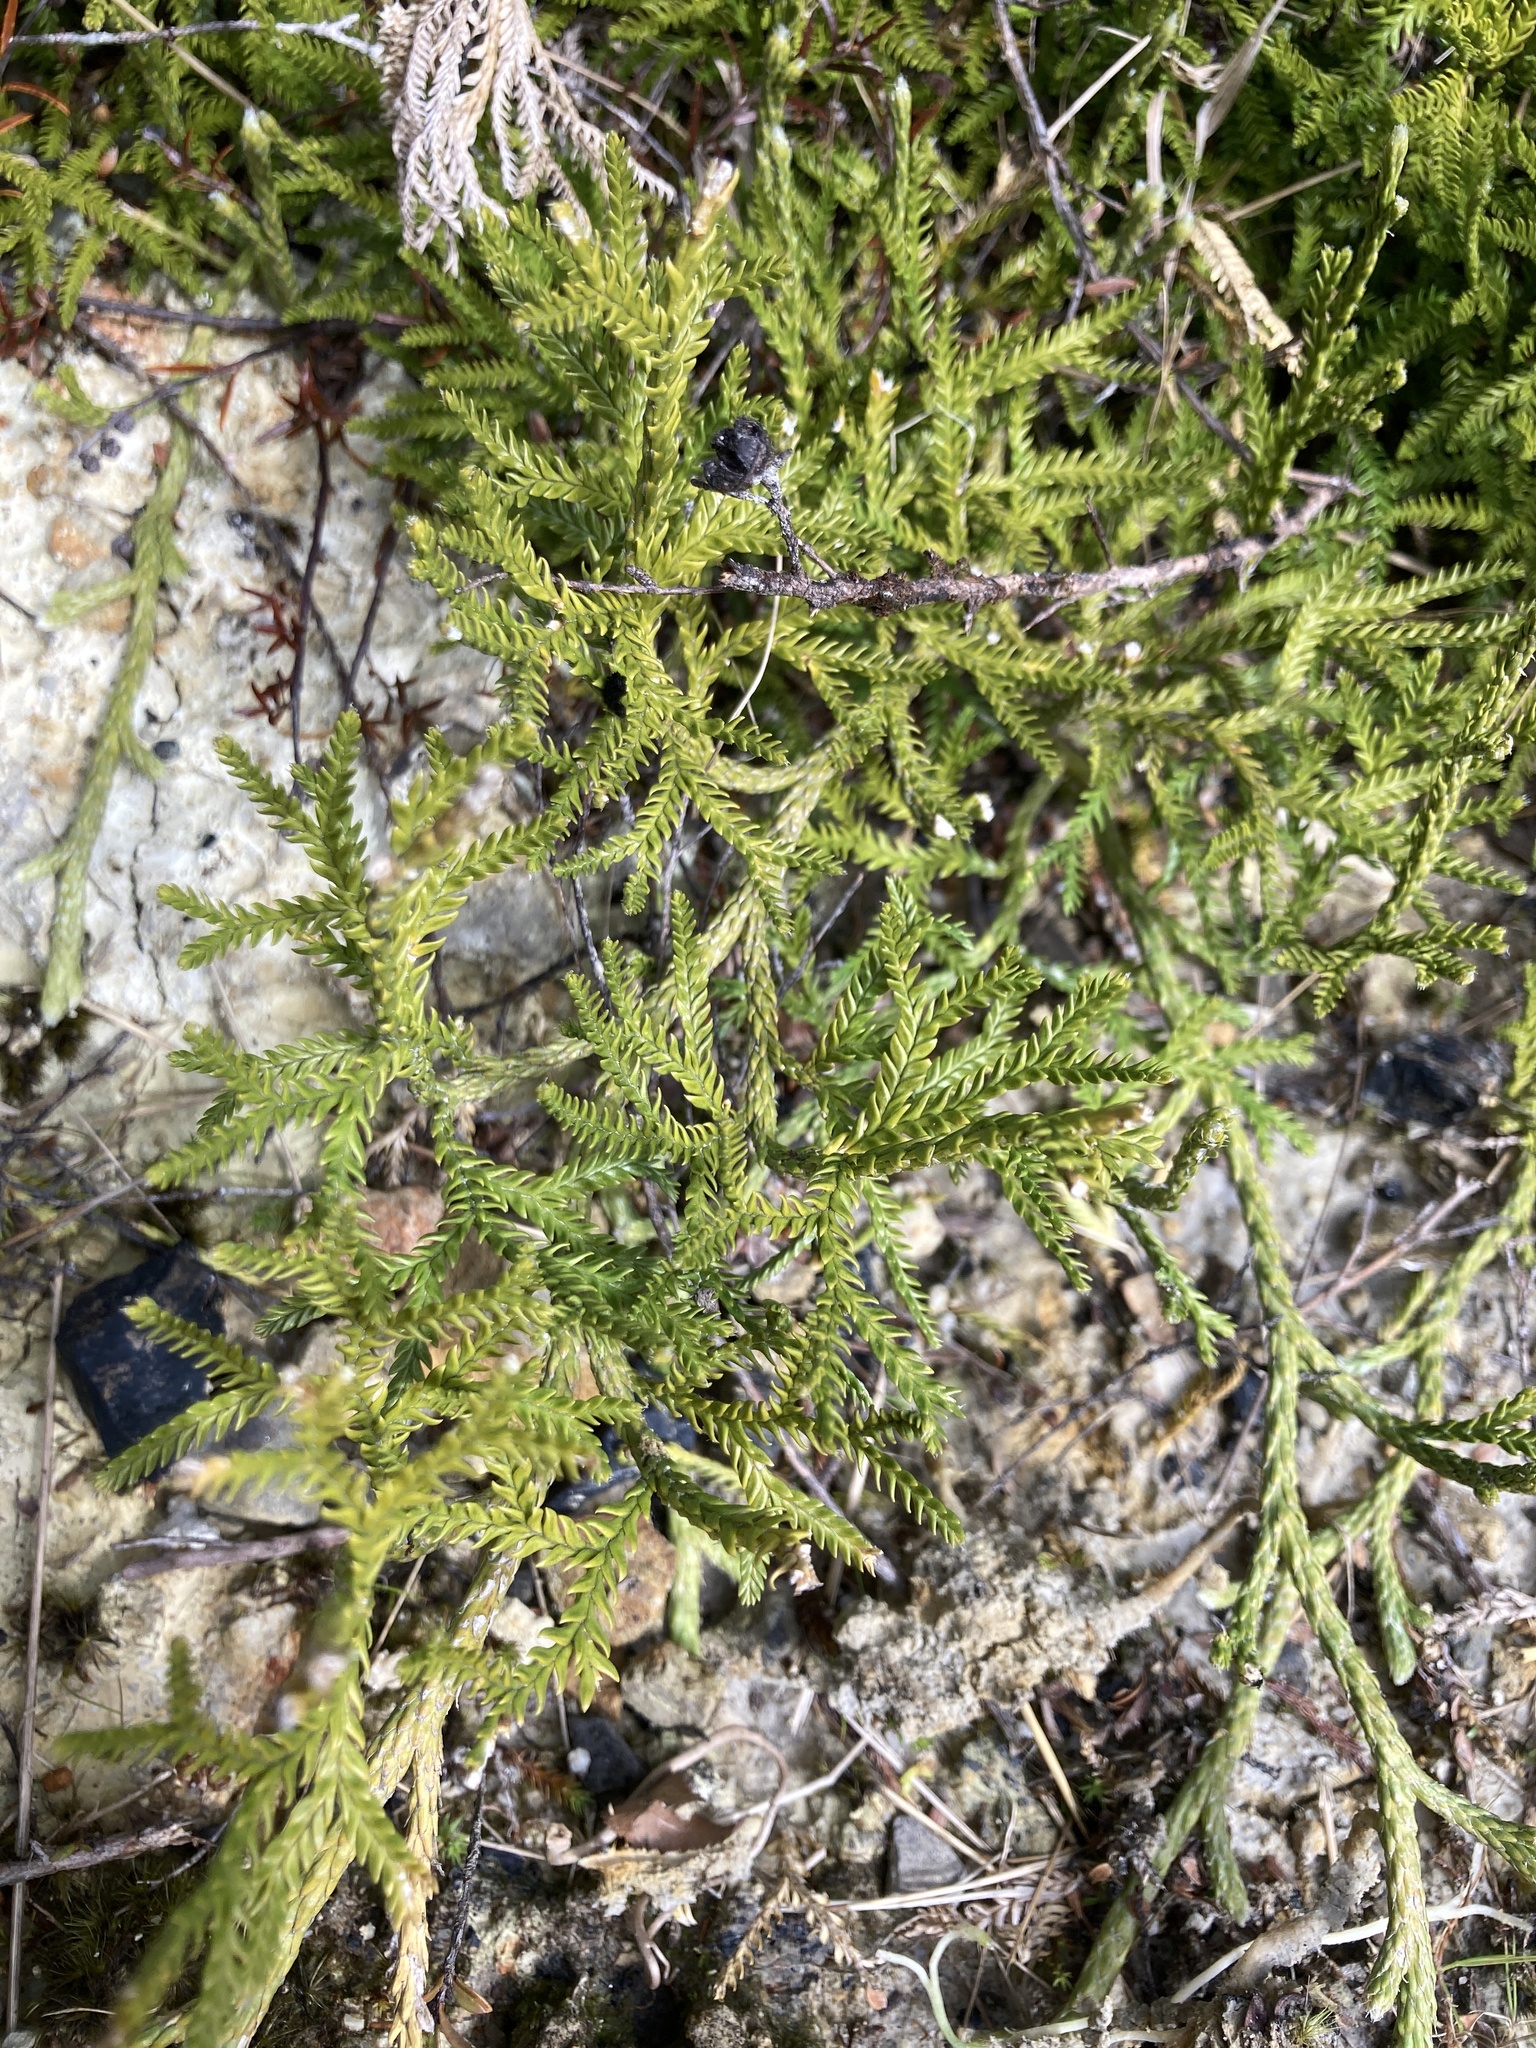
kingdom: Plantae
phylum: Tracheophyta
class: Lycopodiopsida
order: Lycopodiales
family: Lycopodiaceae
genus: Diphasium
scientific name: Diphasium scariosum
